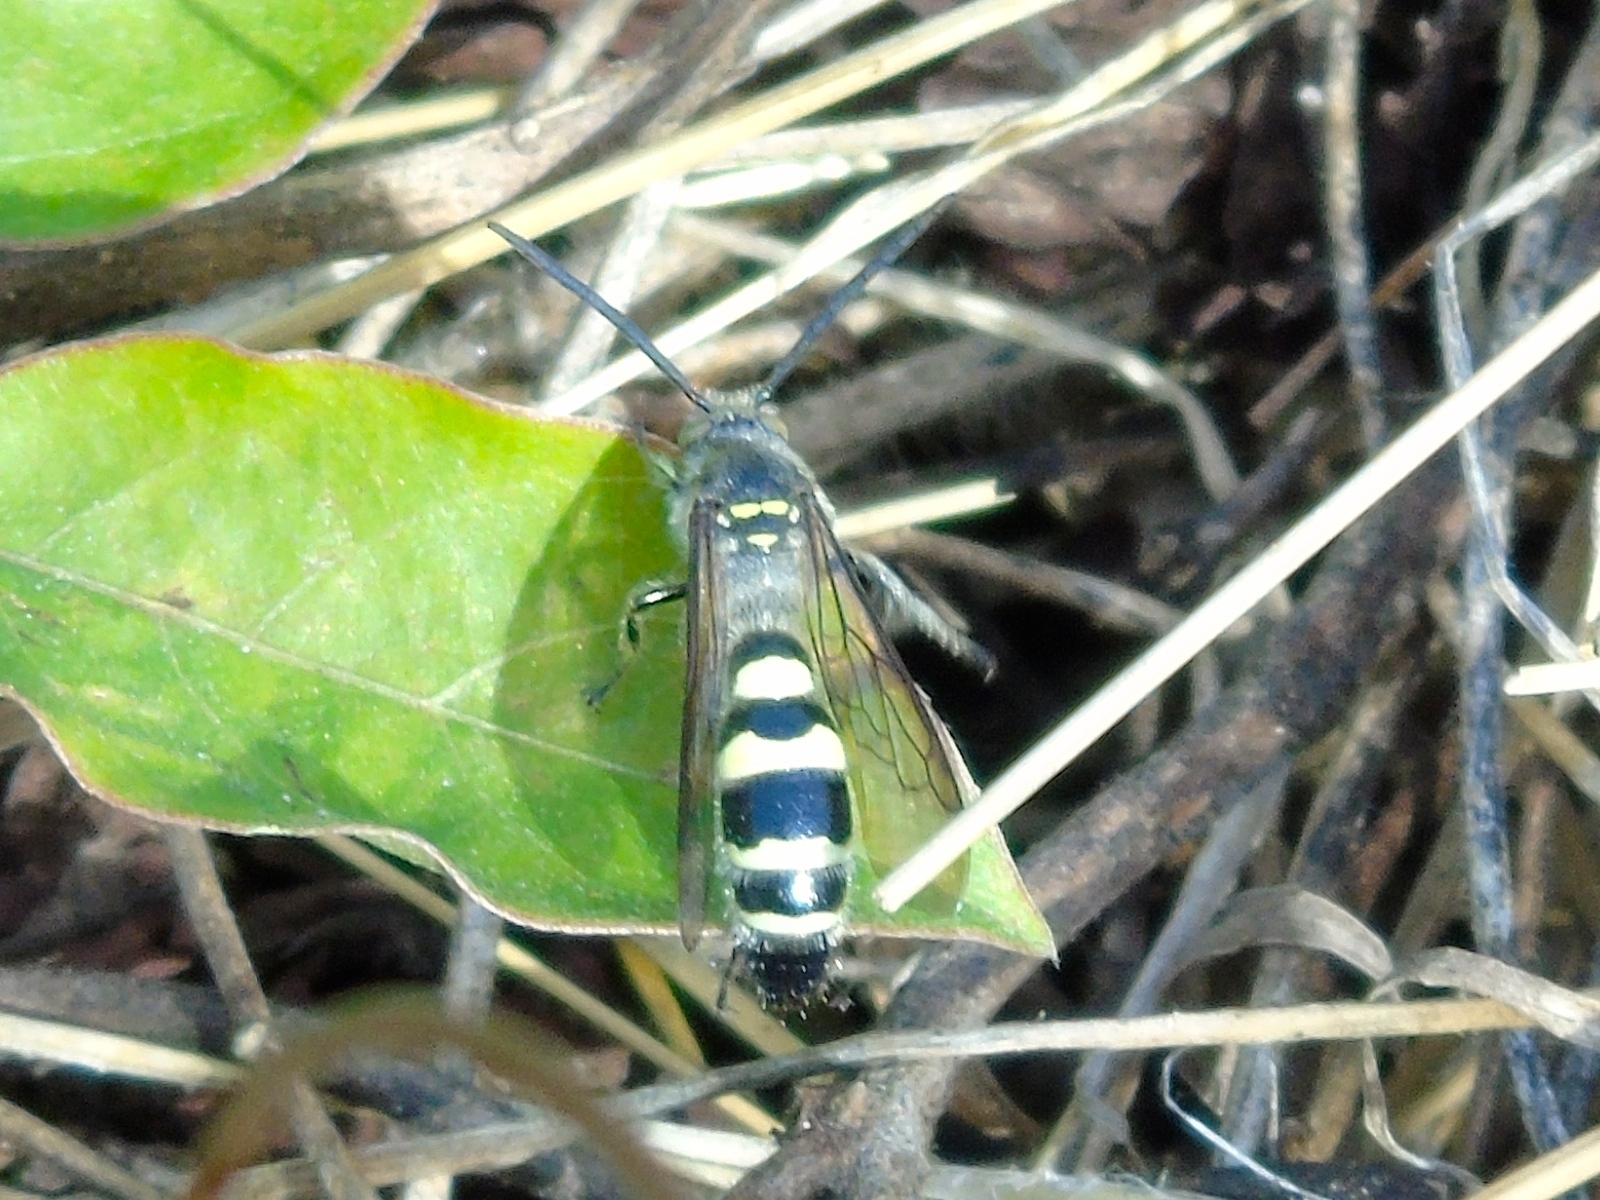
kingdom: Animalia
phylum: Arthropoda
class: Insecta
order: Hymenoptera
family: Scoliidae
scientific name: Scoliidae
